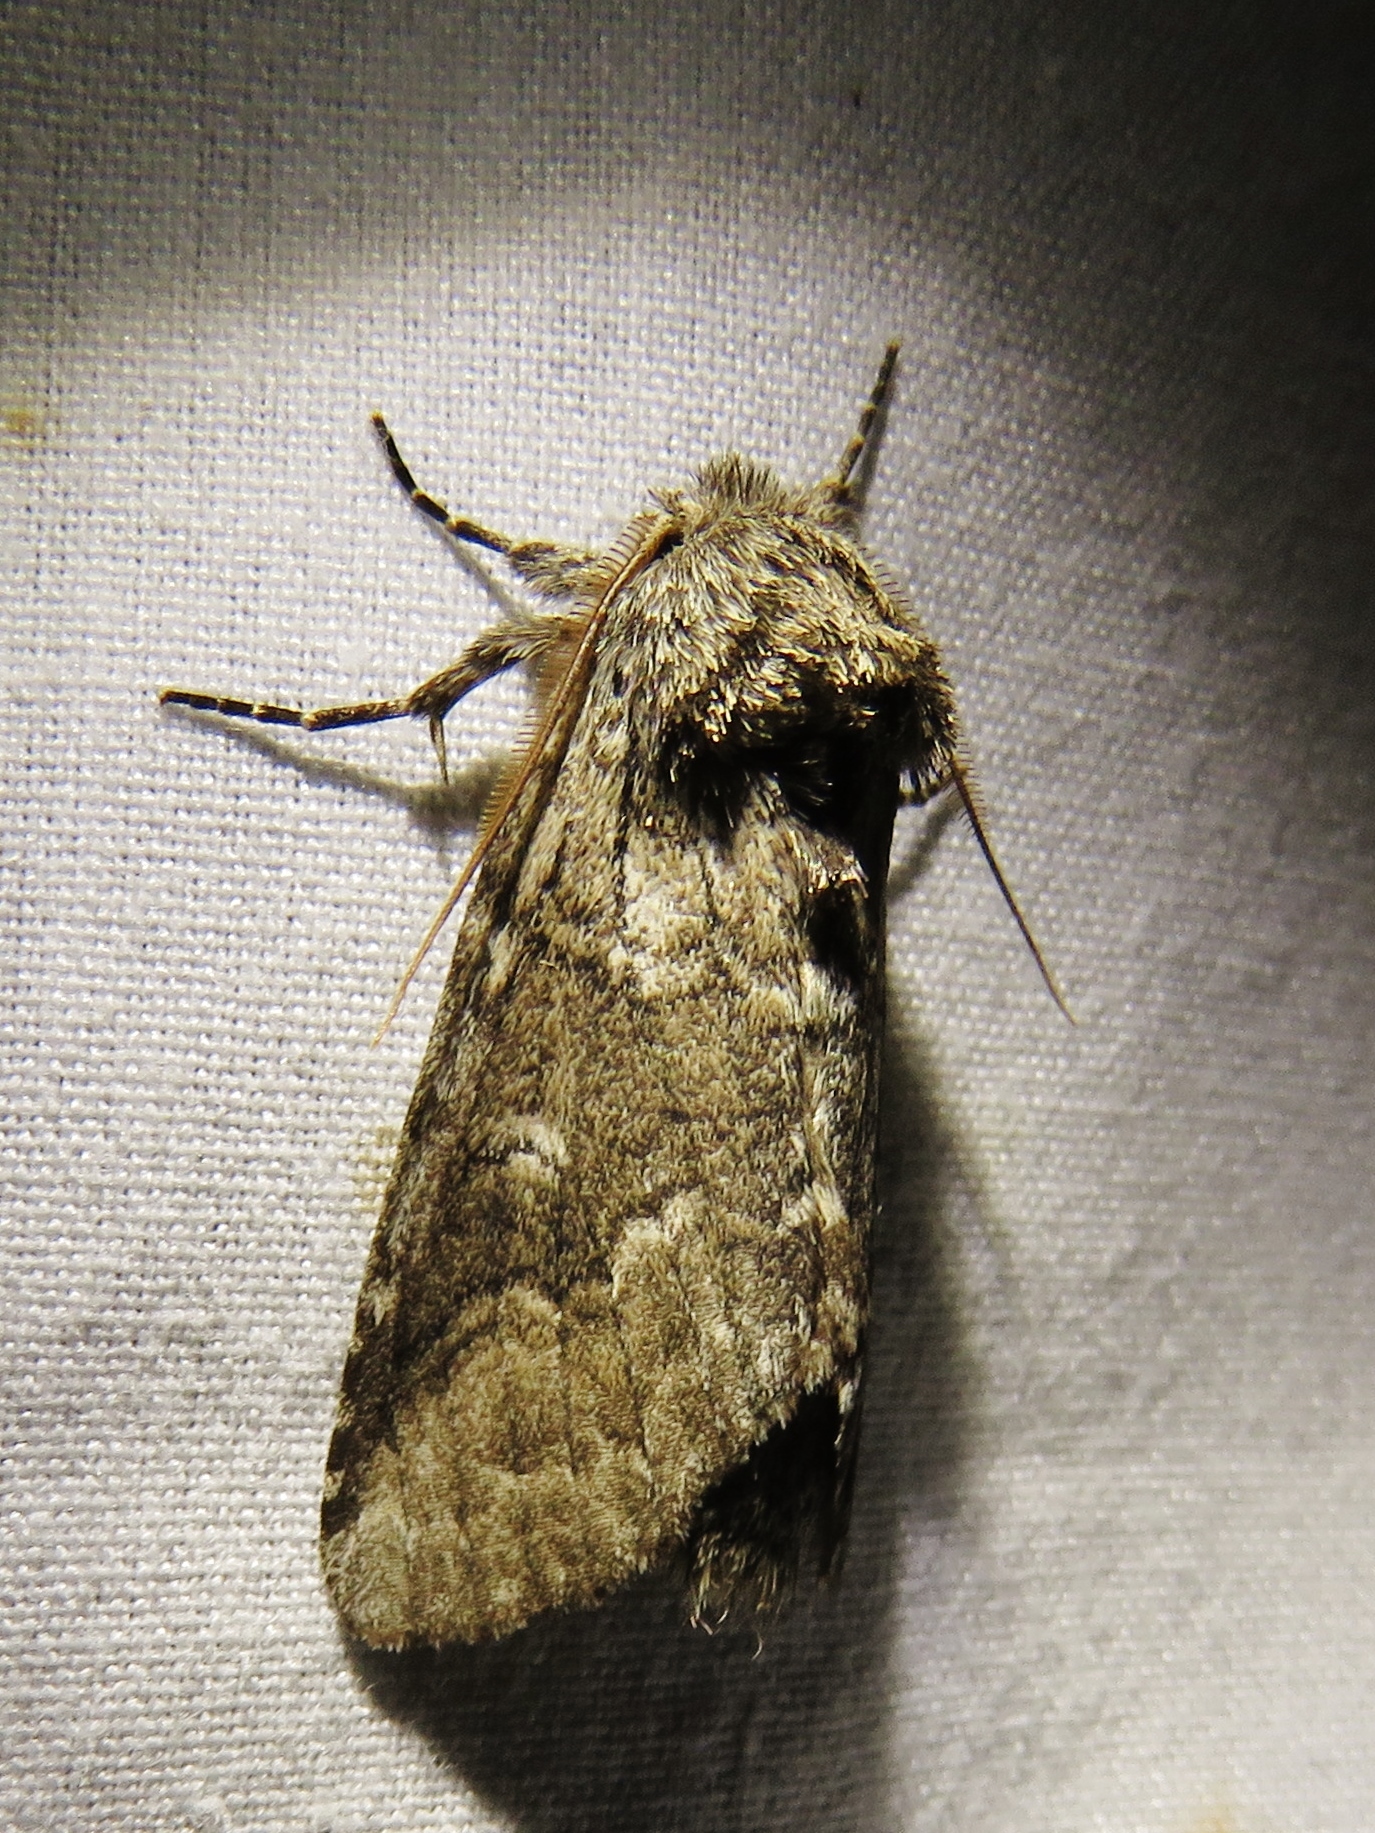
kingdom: Animalia
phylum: Arthropoda
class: Insecta
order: Lepidoptera
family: Notodontidae
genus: Lochmaeus
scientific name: Lochmaeus bilineata
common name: Double-lined prominent
